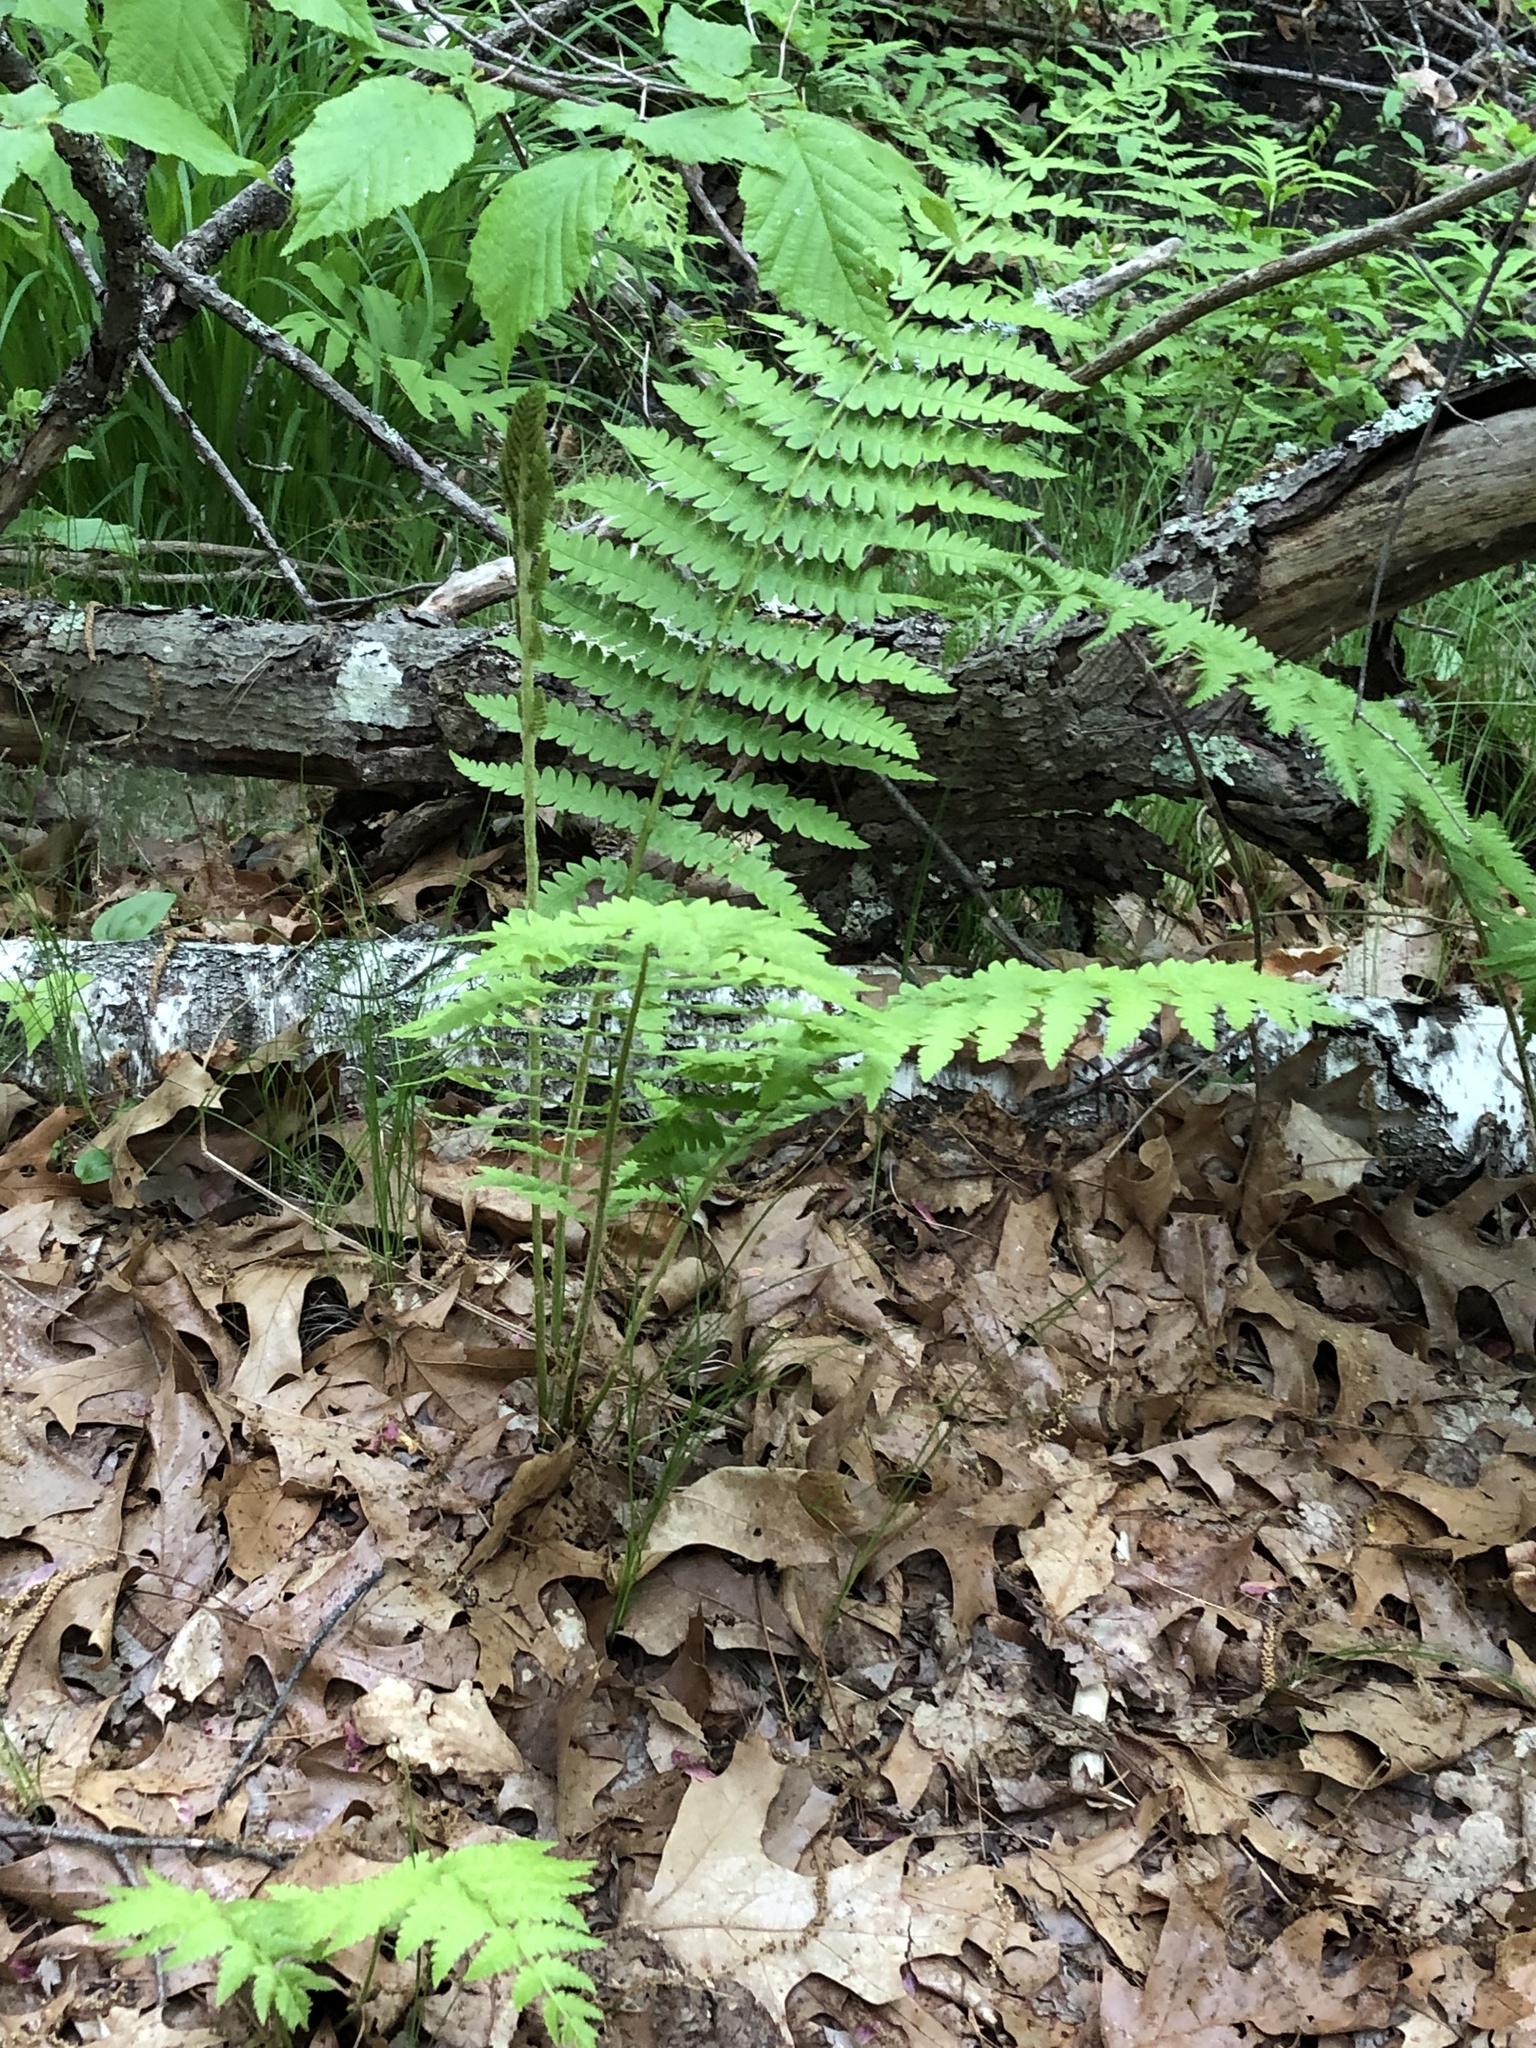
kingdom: Plantae
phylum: Tracheophyta
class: Polypodiopsida
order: Osmundales
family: Osmundaceae
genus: Osmundastrum
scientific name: Osmundastrum cinnamomeum
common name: Cinnamon fern
